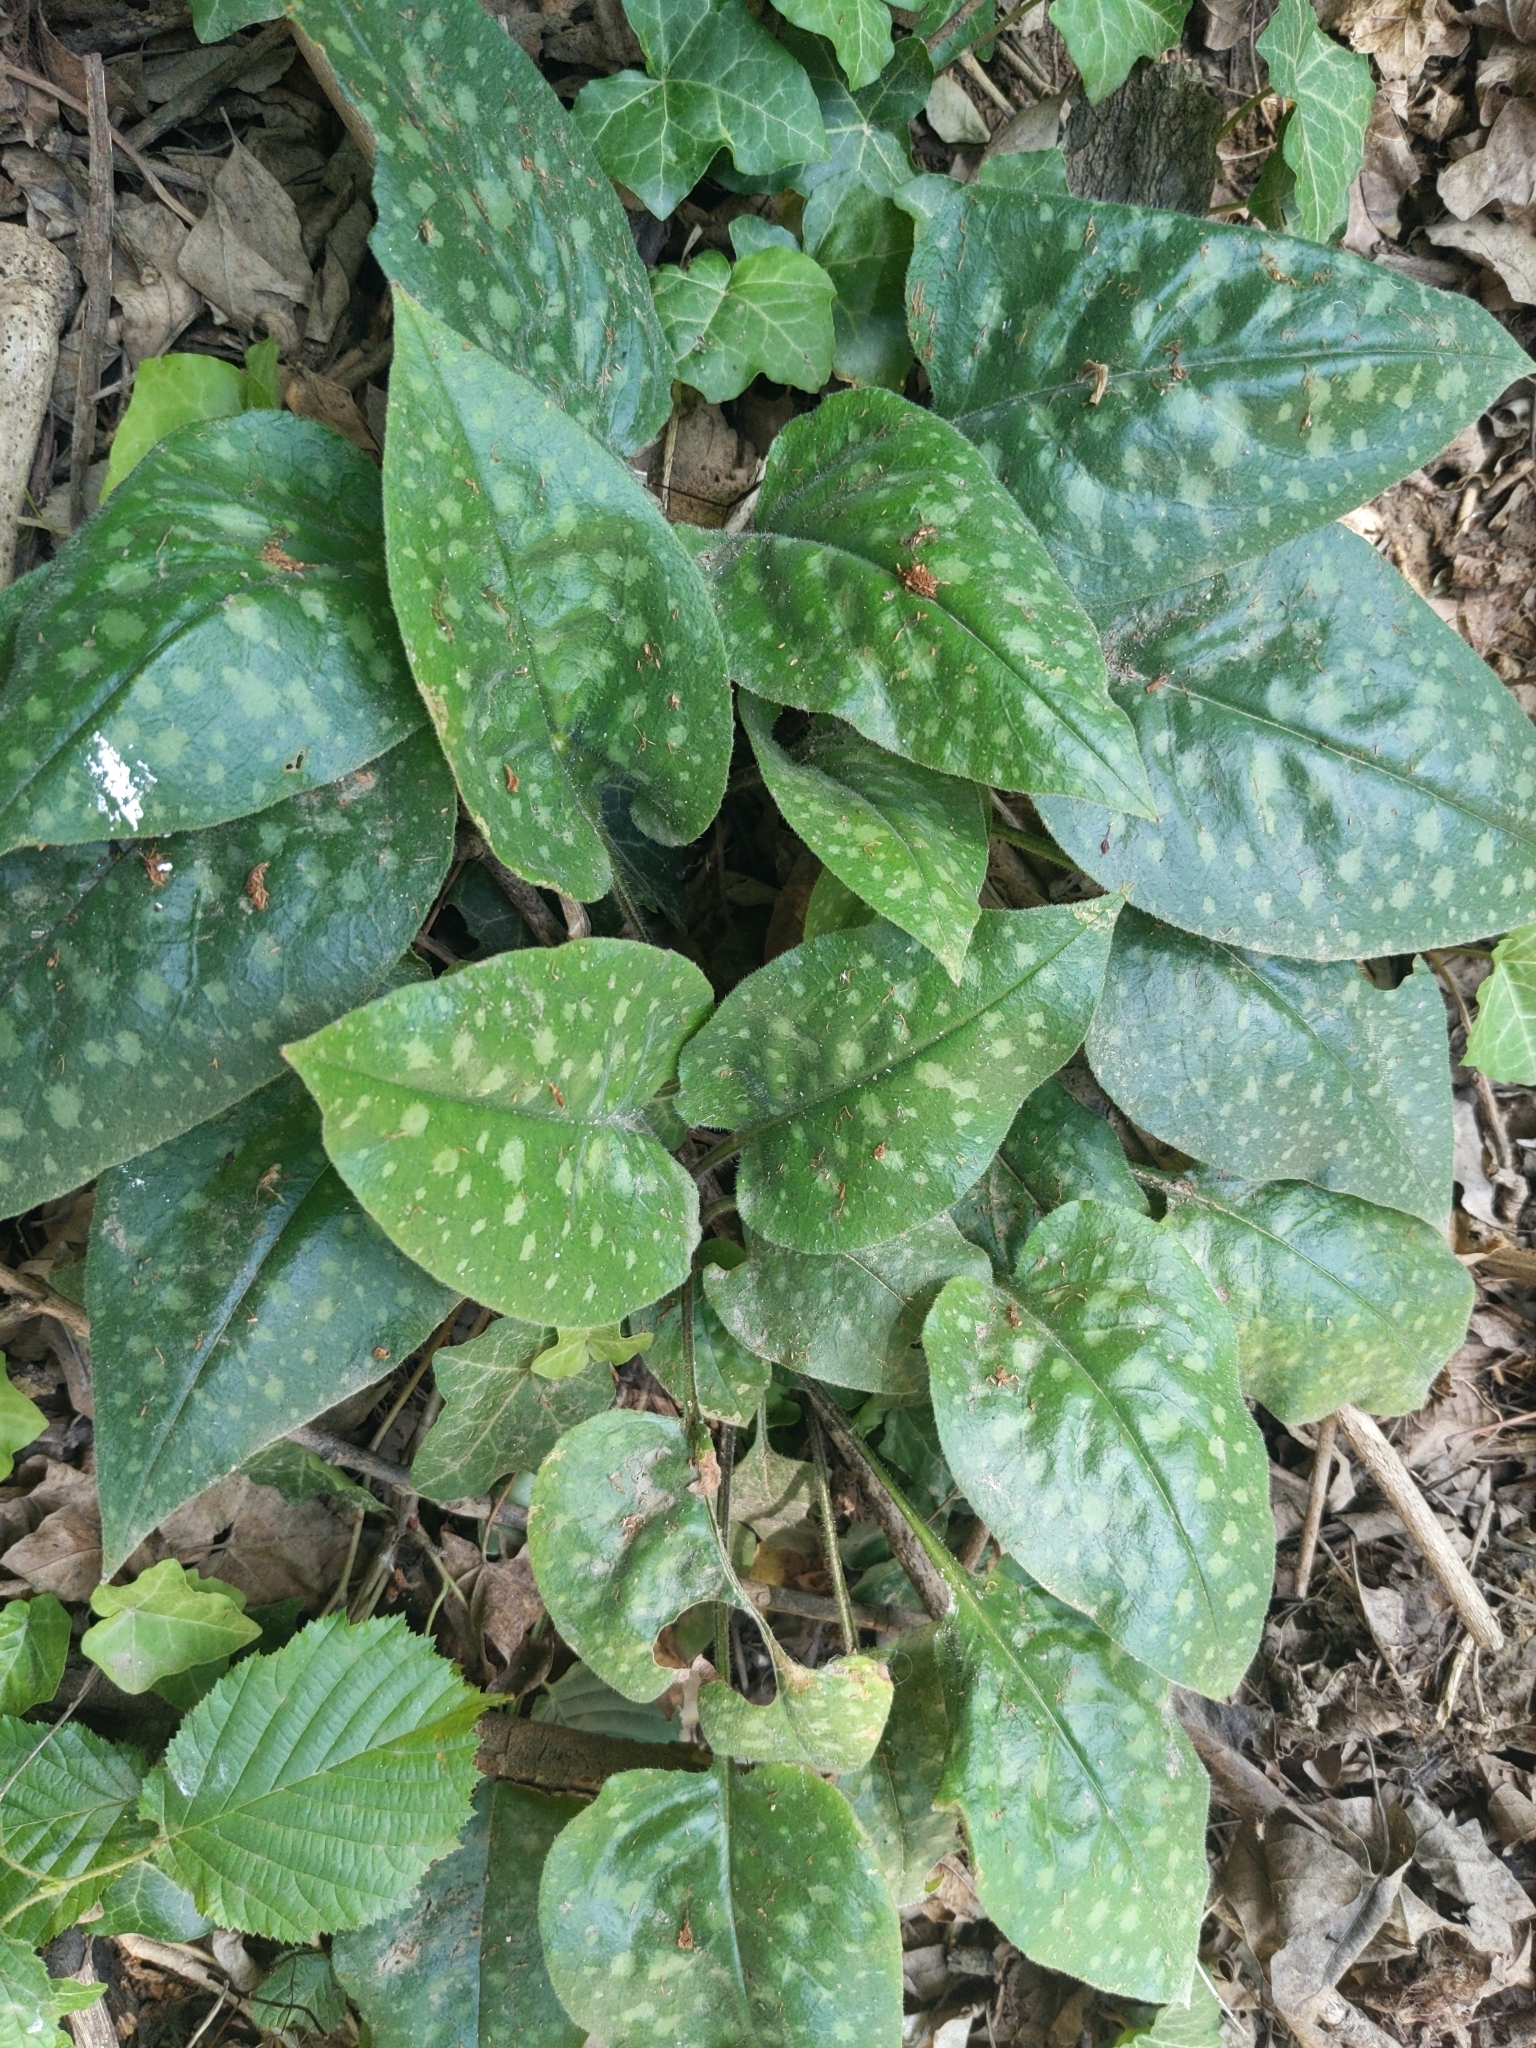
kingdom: Plantae
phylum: Tracheophyta
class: Magnoliopsida
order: Boraginales
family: Boraginaceae
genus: Pulmonaria
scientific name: Pulmonaria officinalis
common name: Lungwort
